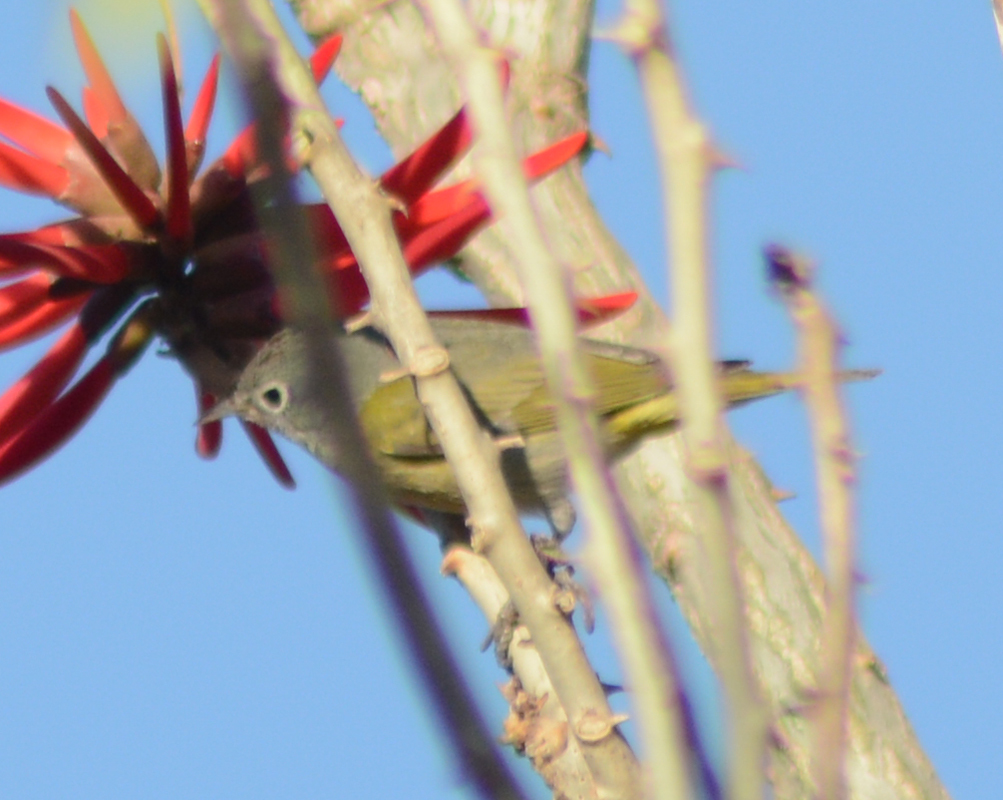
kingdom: Animalia
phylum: Chordata
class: Aves
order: Passeriformes
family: Parulidae
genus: Leiothlypis
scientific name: Leiothlypis ruficapilla
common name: Nashville warbler
